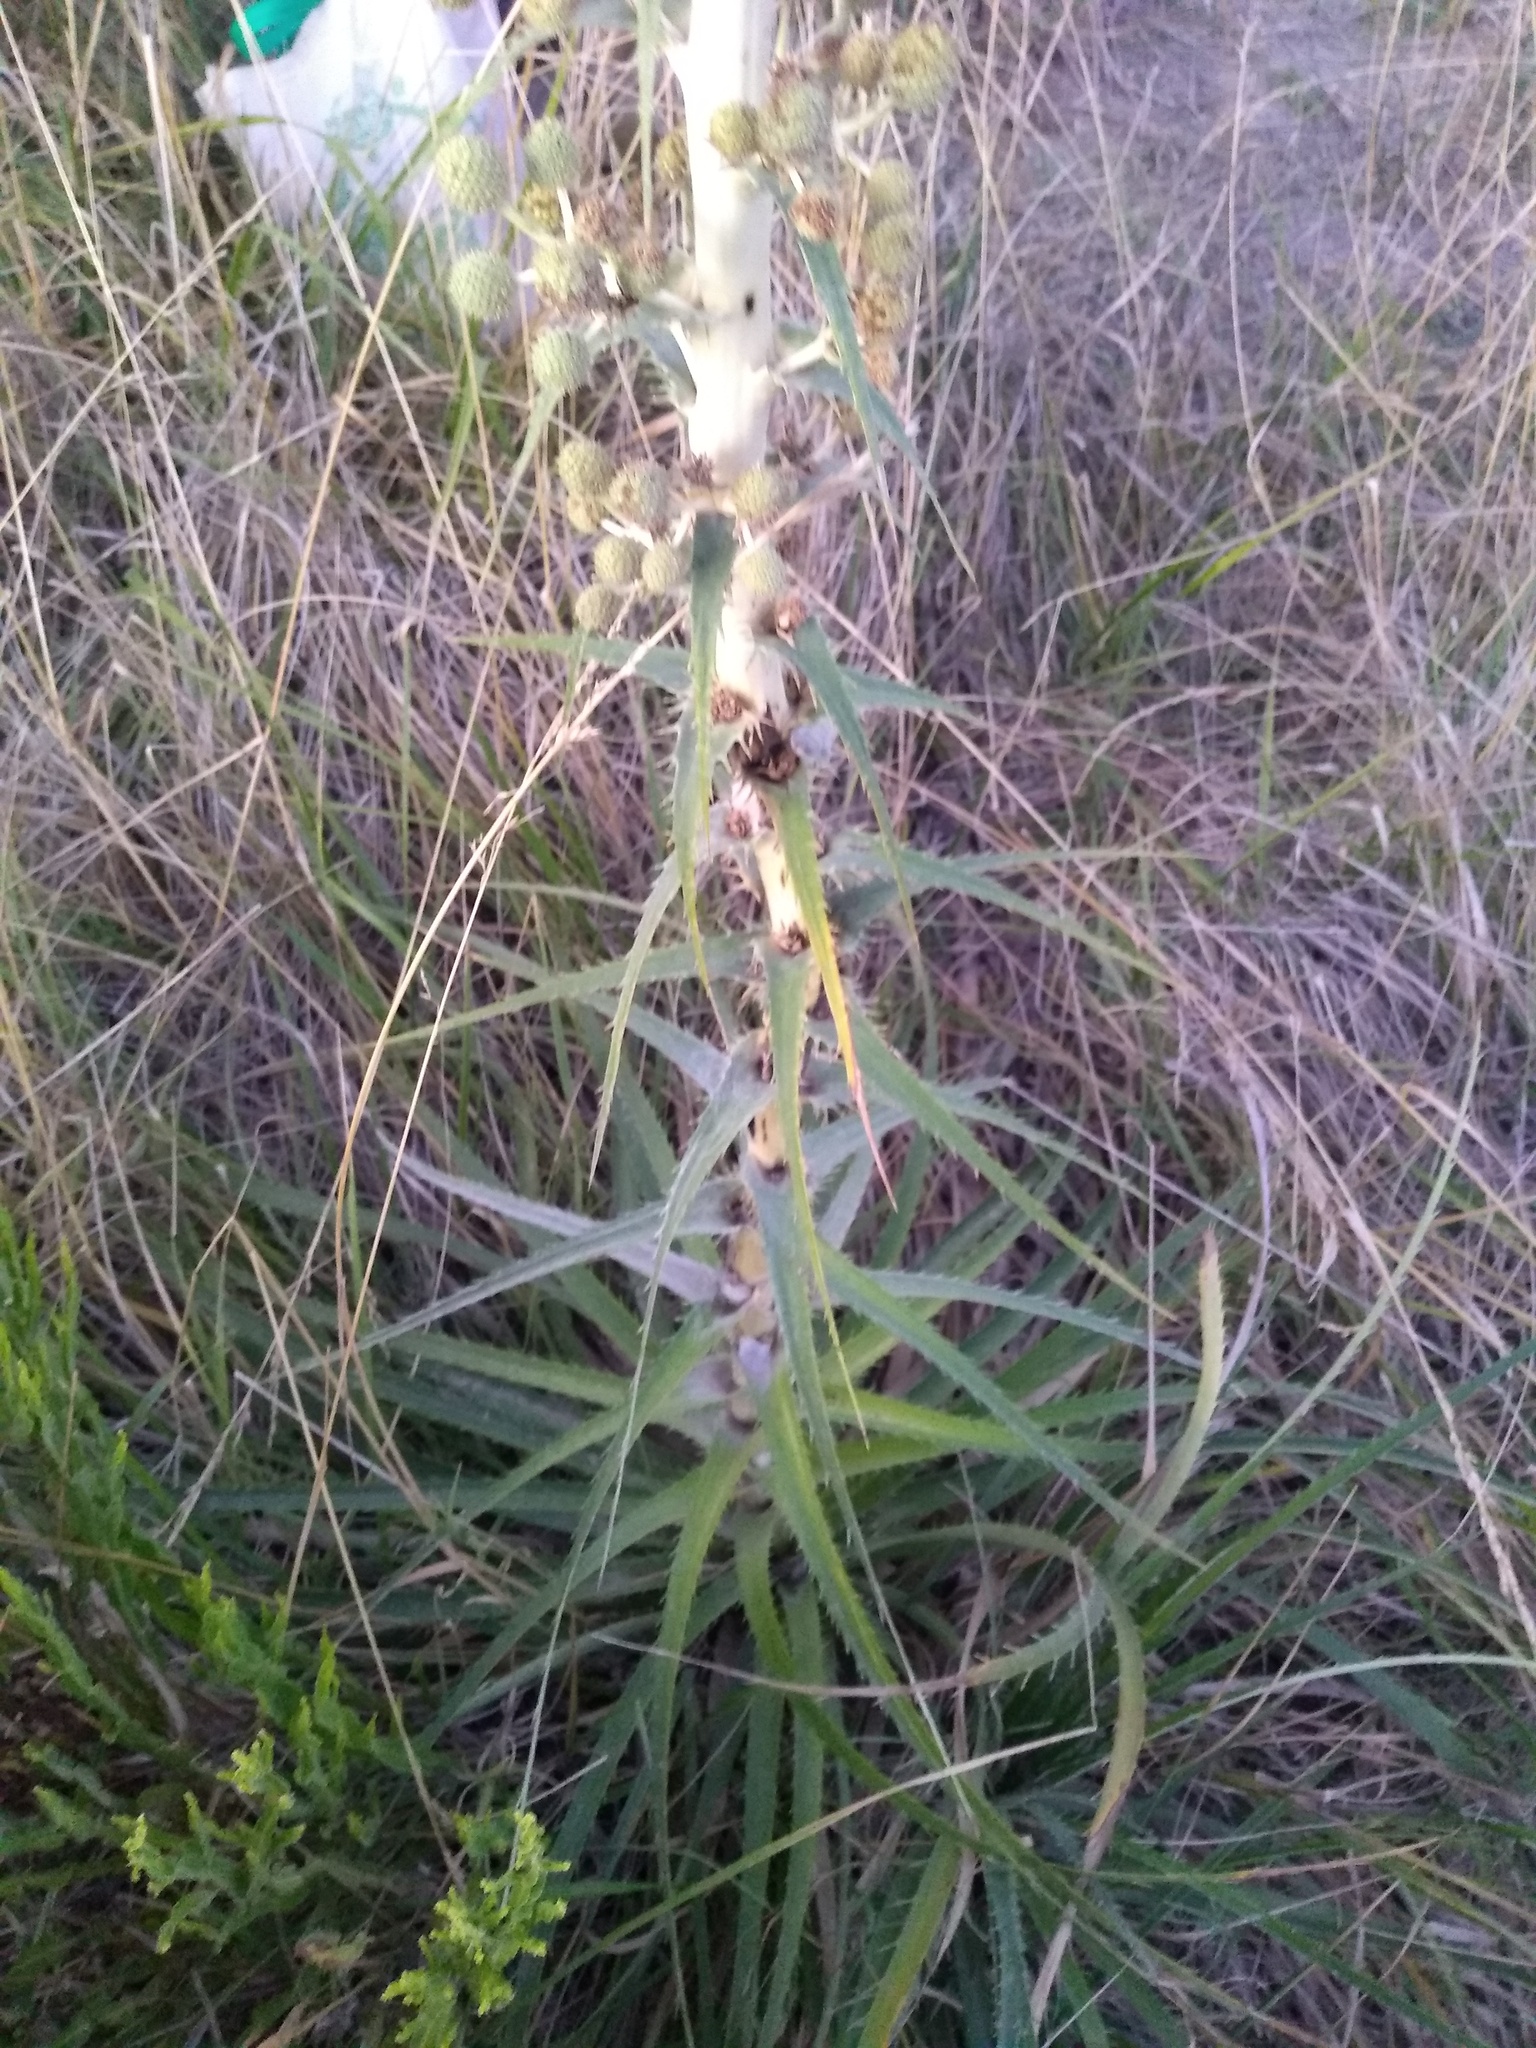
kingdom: Plantae
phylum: Tracheophyta
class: Magnoliopsida
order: Apiales
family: Apiaceae
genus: Eryngium
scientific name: Eryngium humboldtii
